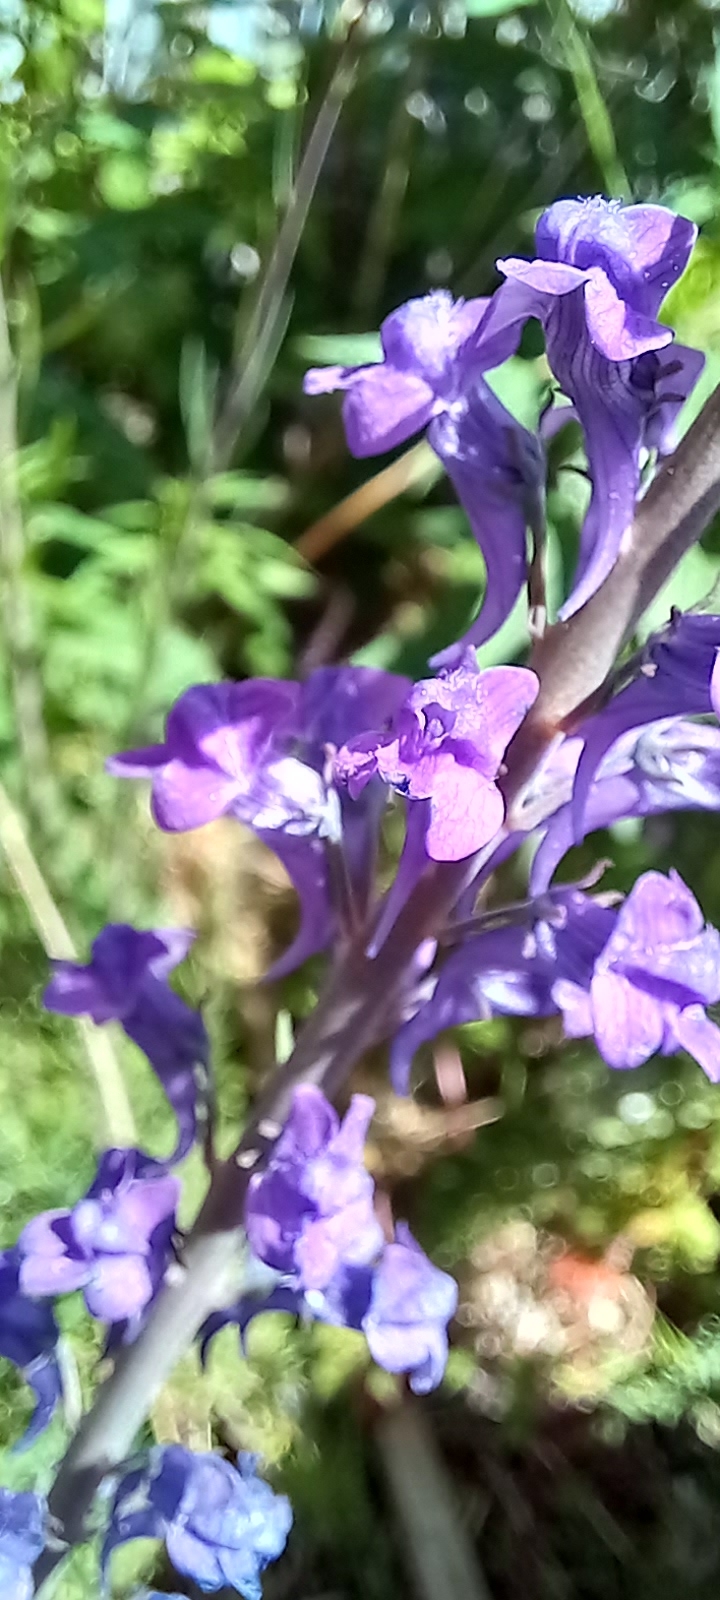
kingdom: Plantae
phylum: Tracheophyta
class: Magnoliopsida
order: Lamiales
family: Plantaginaceae
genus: Linaria
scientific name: Linaria purpurea
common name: Purple toadflax
